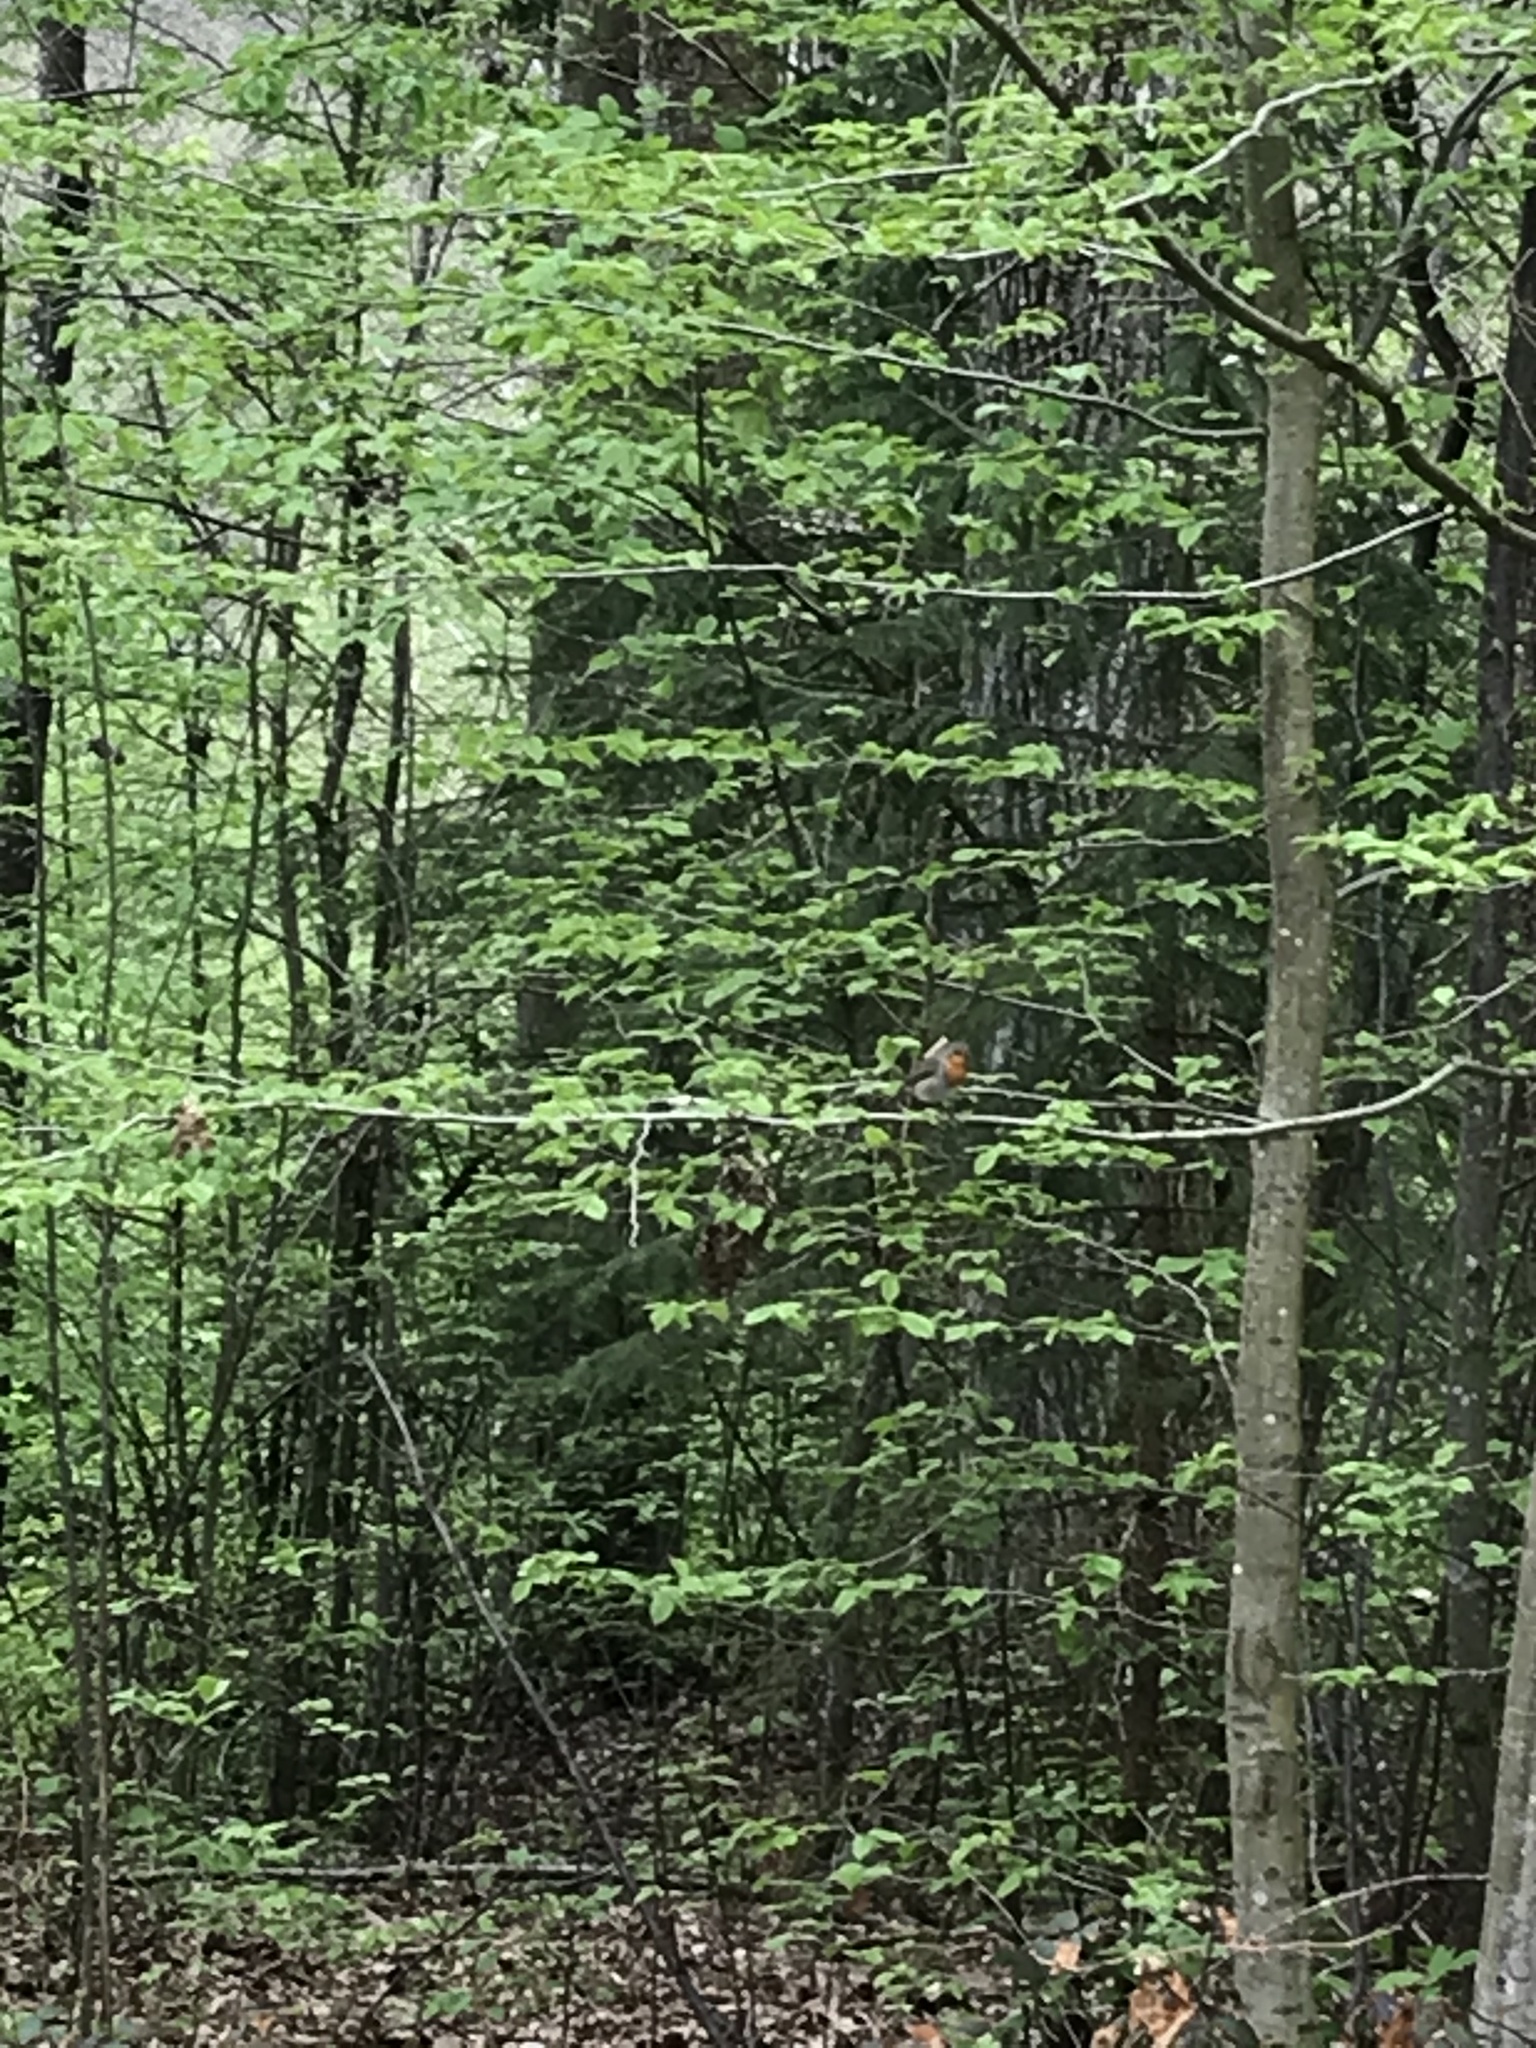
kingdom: Animalia
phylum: Chordata
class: Aves
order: Passeriformes
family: Muscicapidae
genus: Erithacus
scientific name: Erithacus rubecula
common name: European robin
